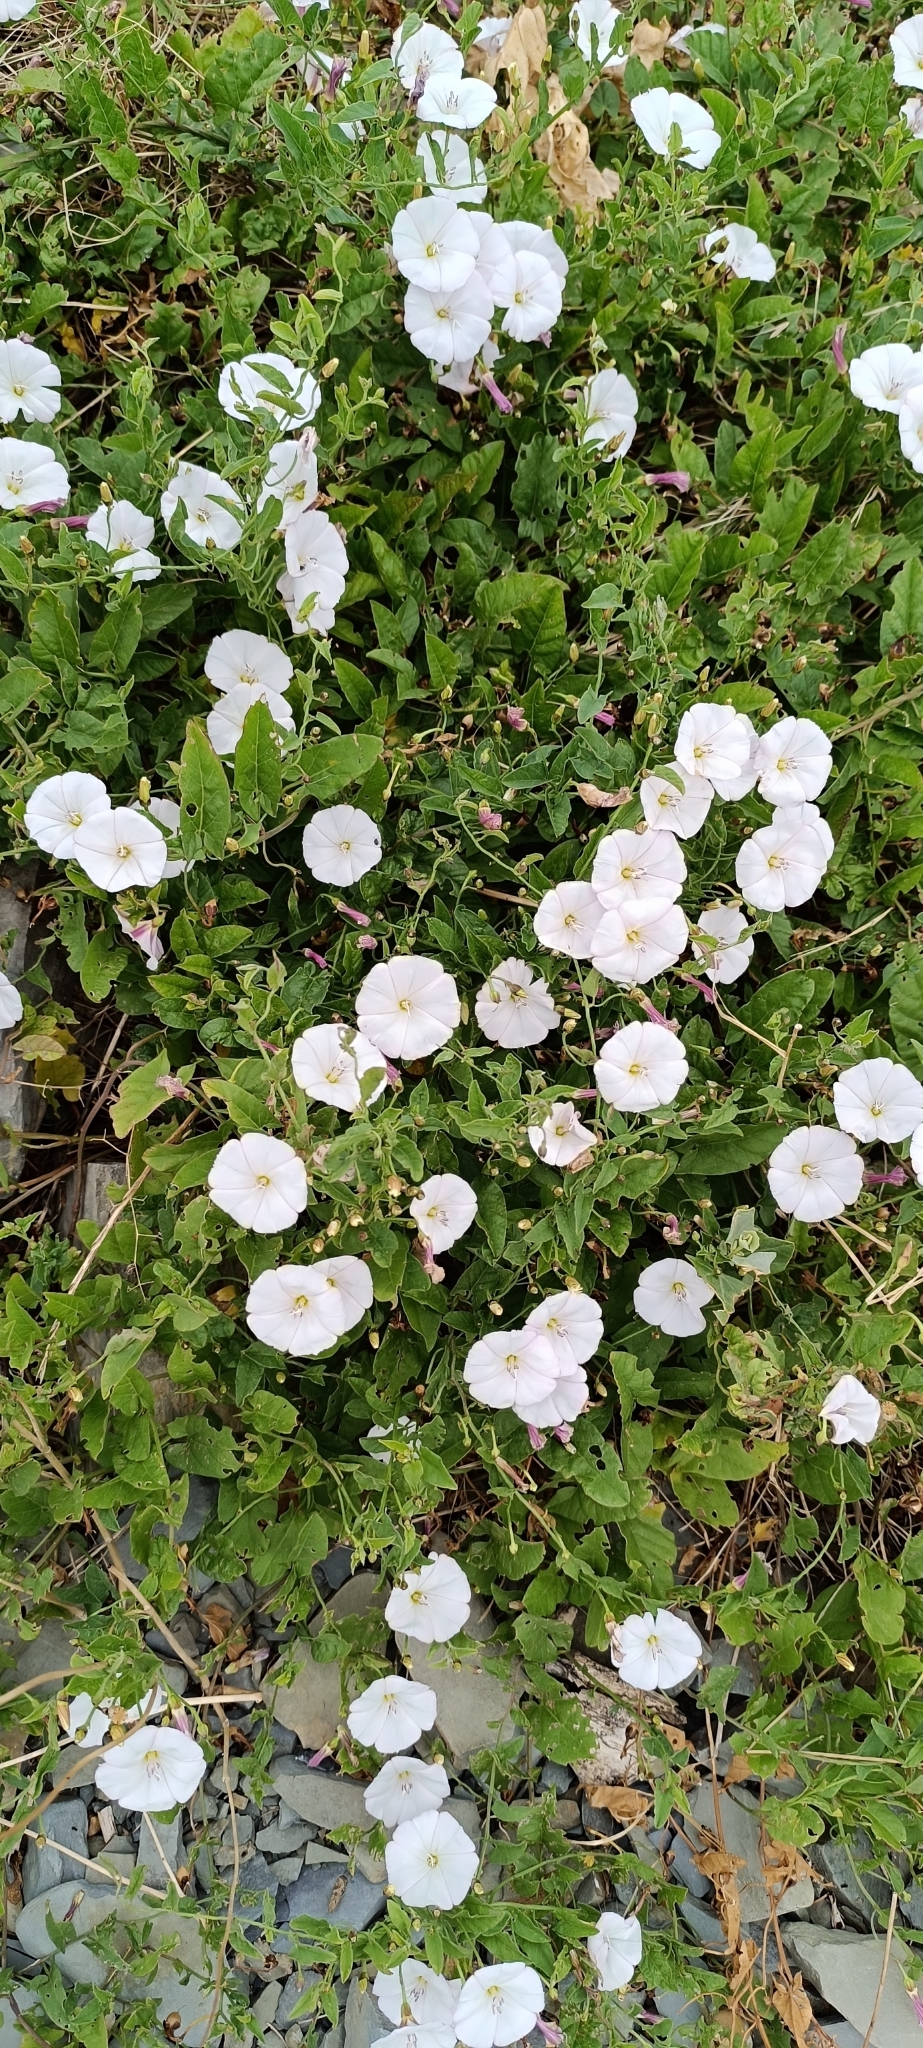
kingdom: Plantae
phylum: Tracheophyta
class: Magnoliopsida
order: Solanales
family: Convolvulaceae
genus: Convolvulus
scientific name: Convolvulus arvensis
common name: Field bindweed
